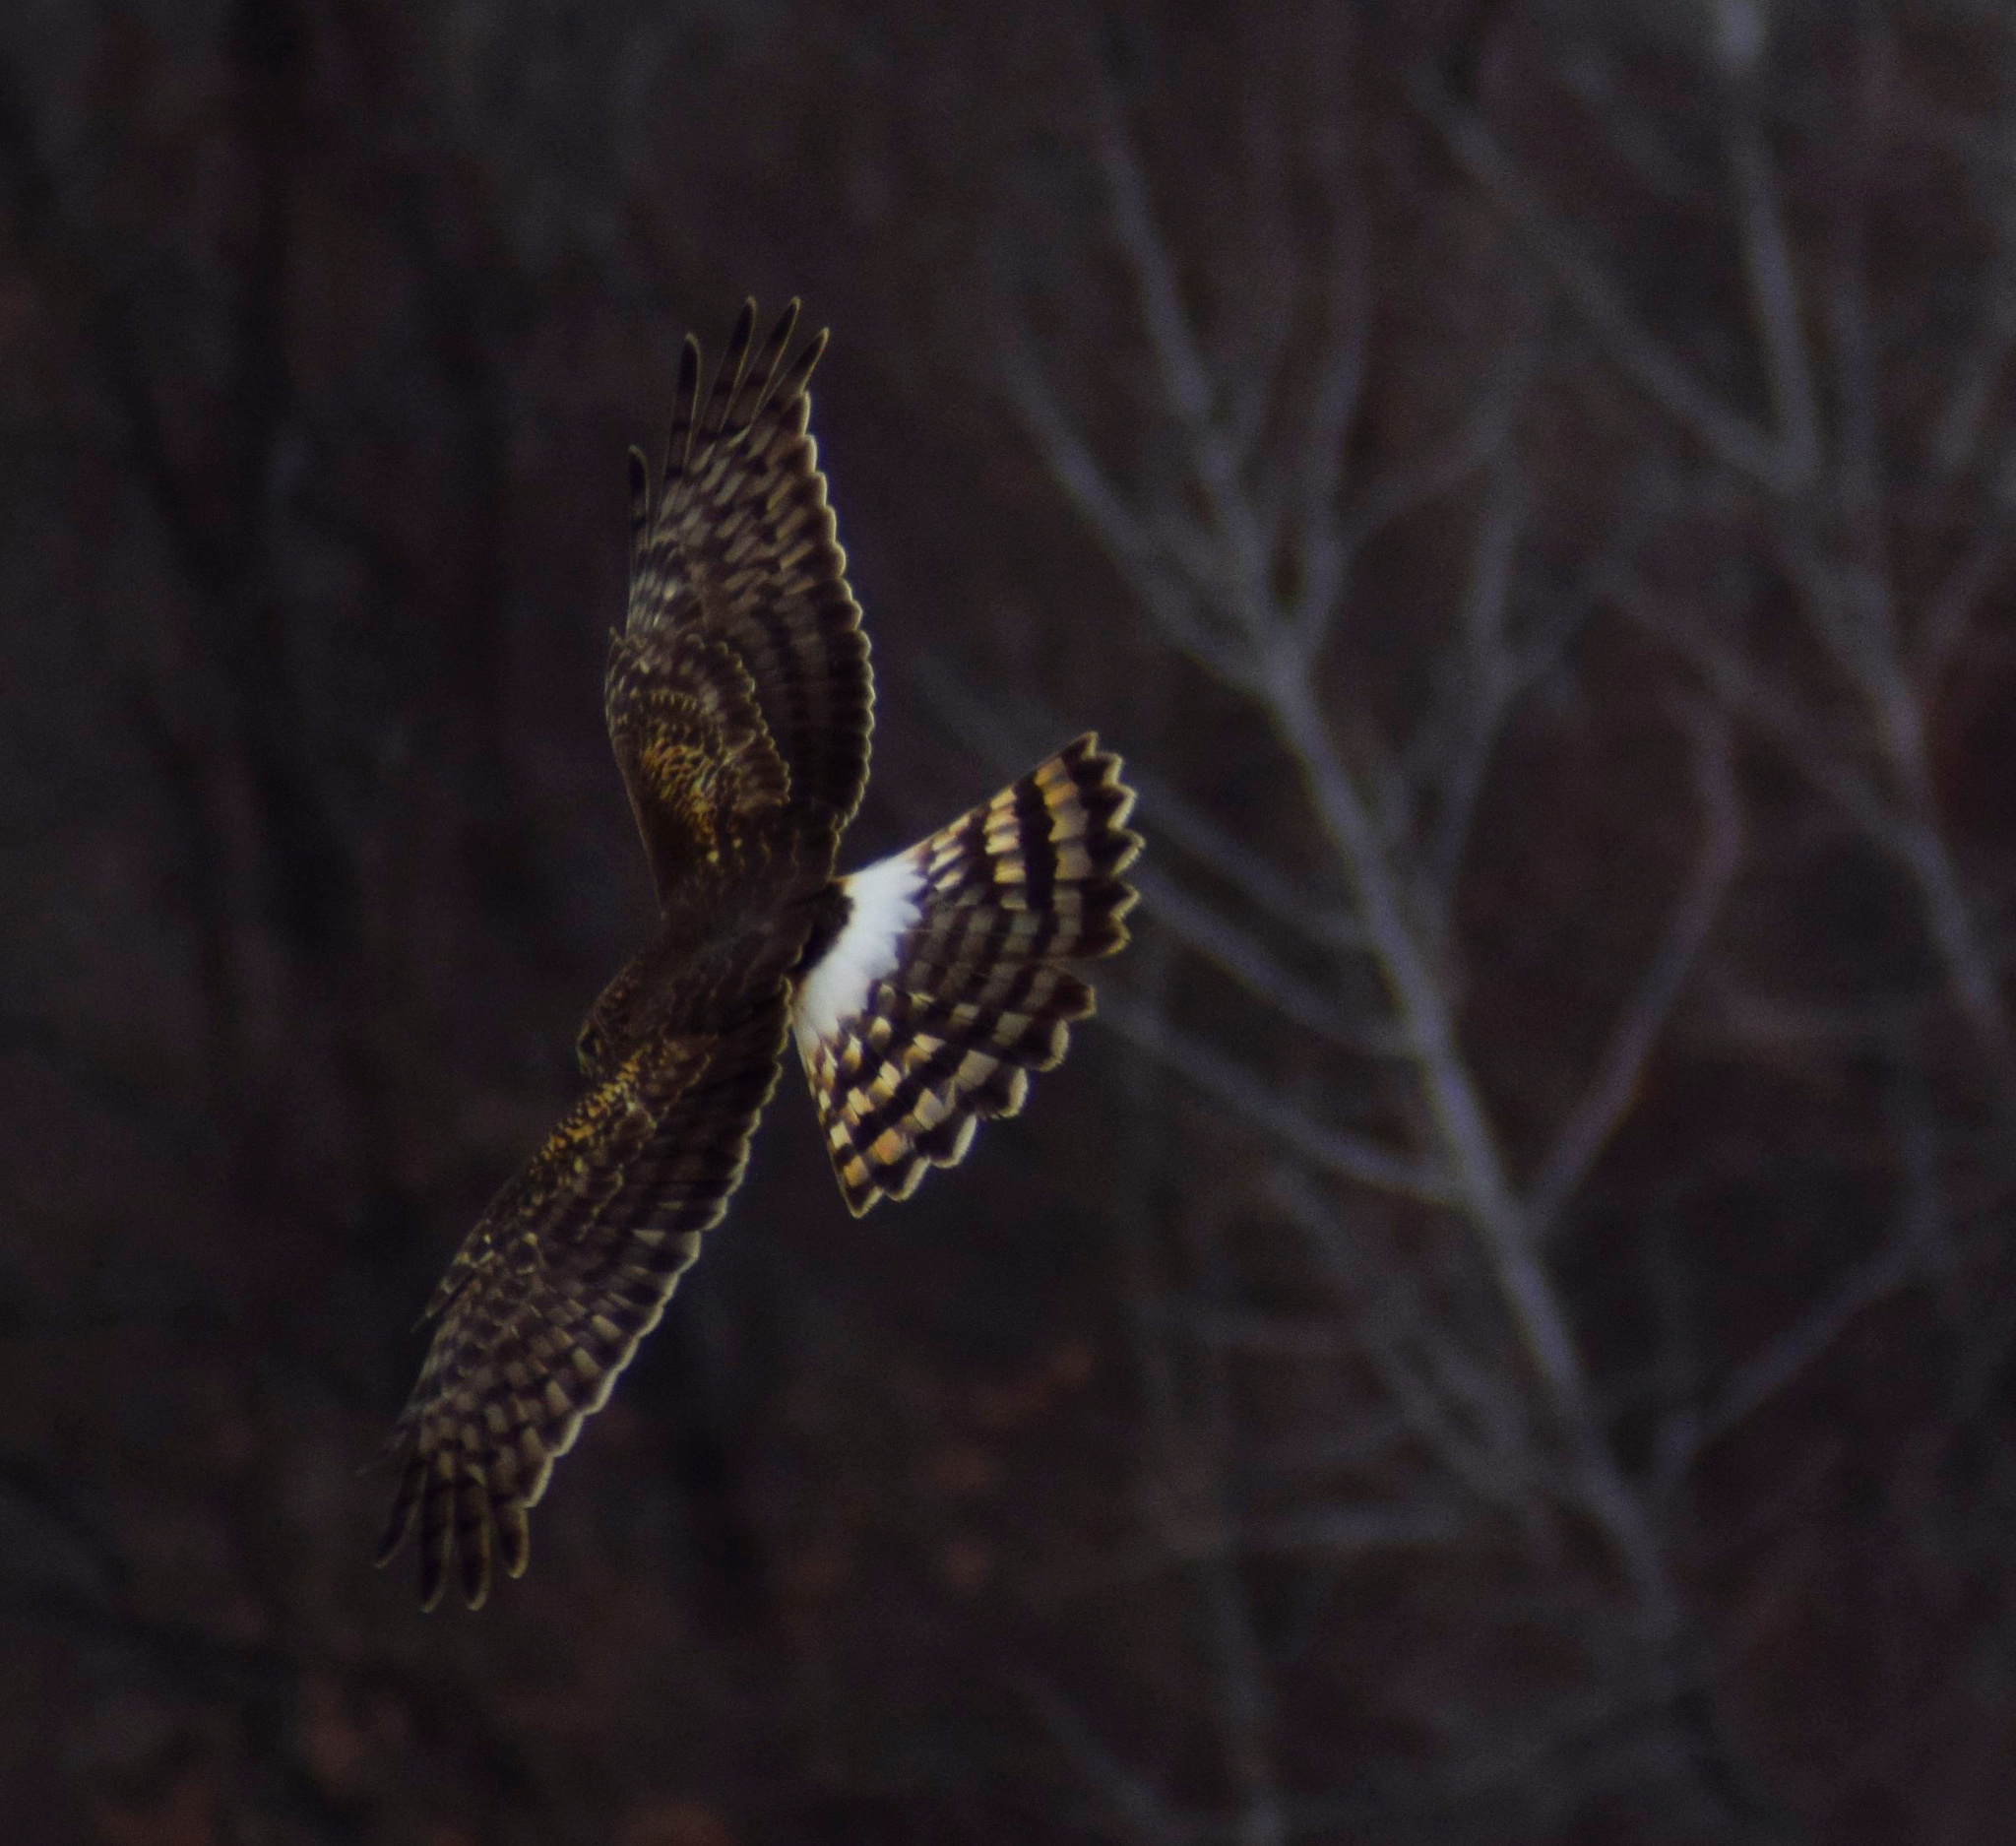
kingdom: Animalia
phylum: Chordata
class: Aves
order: Accipitriformes
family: Accipitridae
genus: Circus
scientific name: Circus cyaneus
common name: Hen harrier
